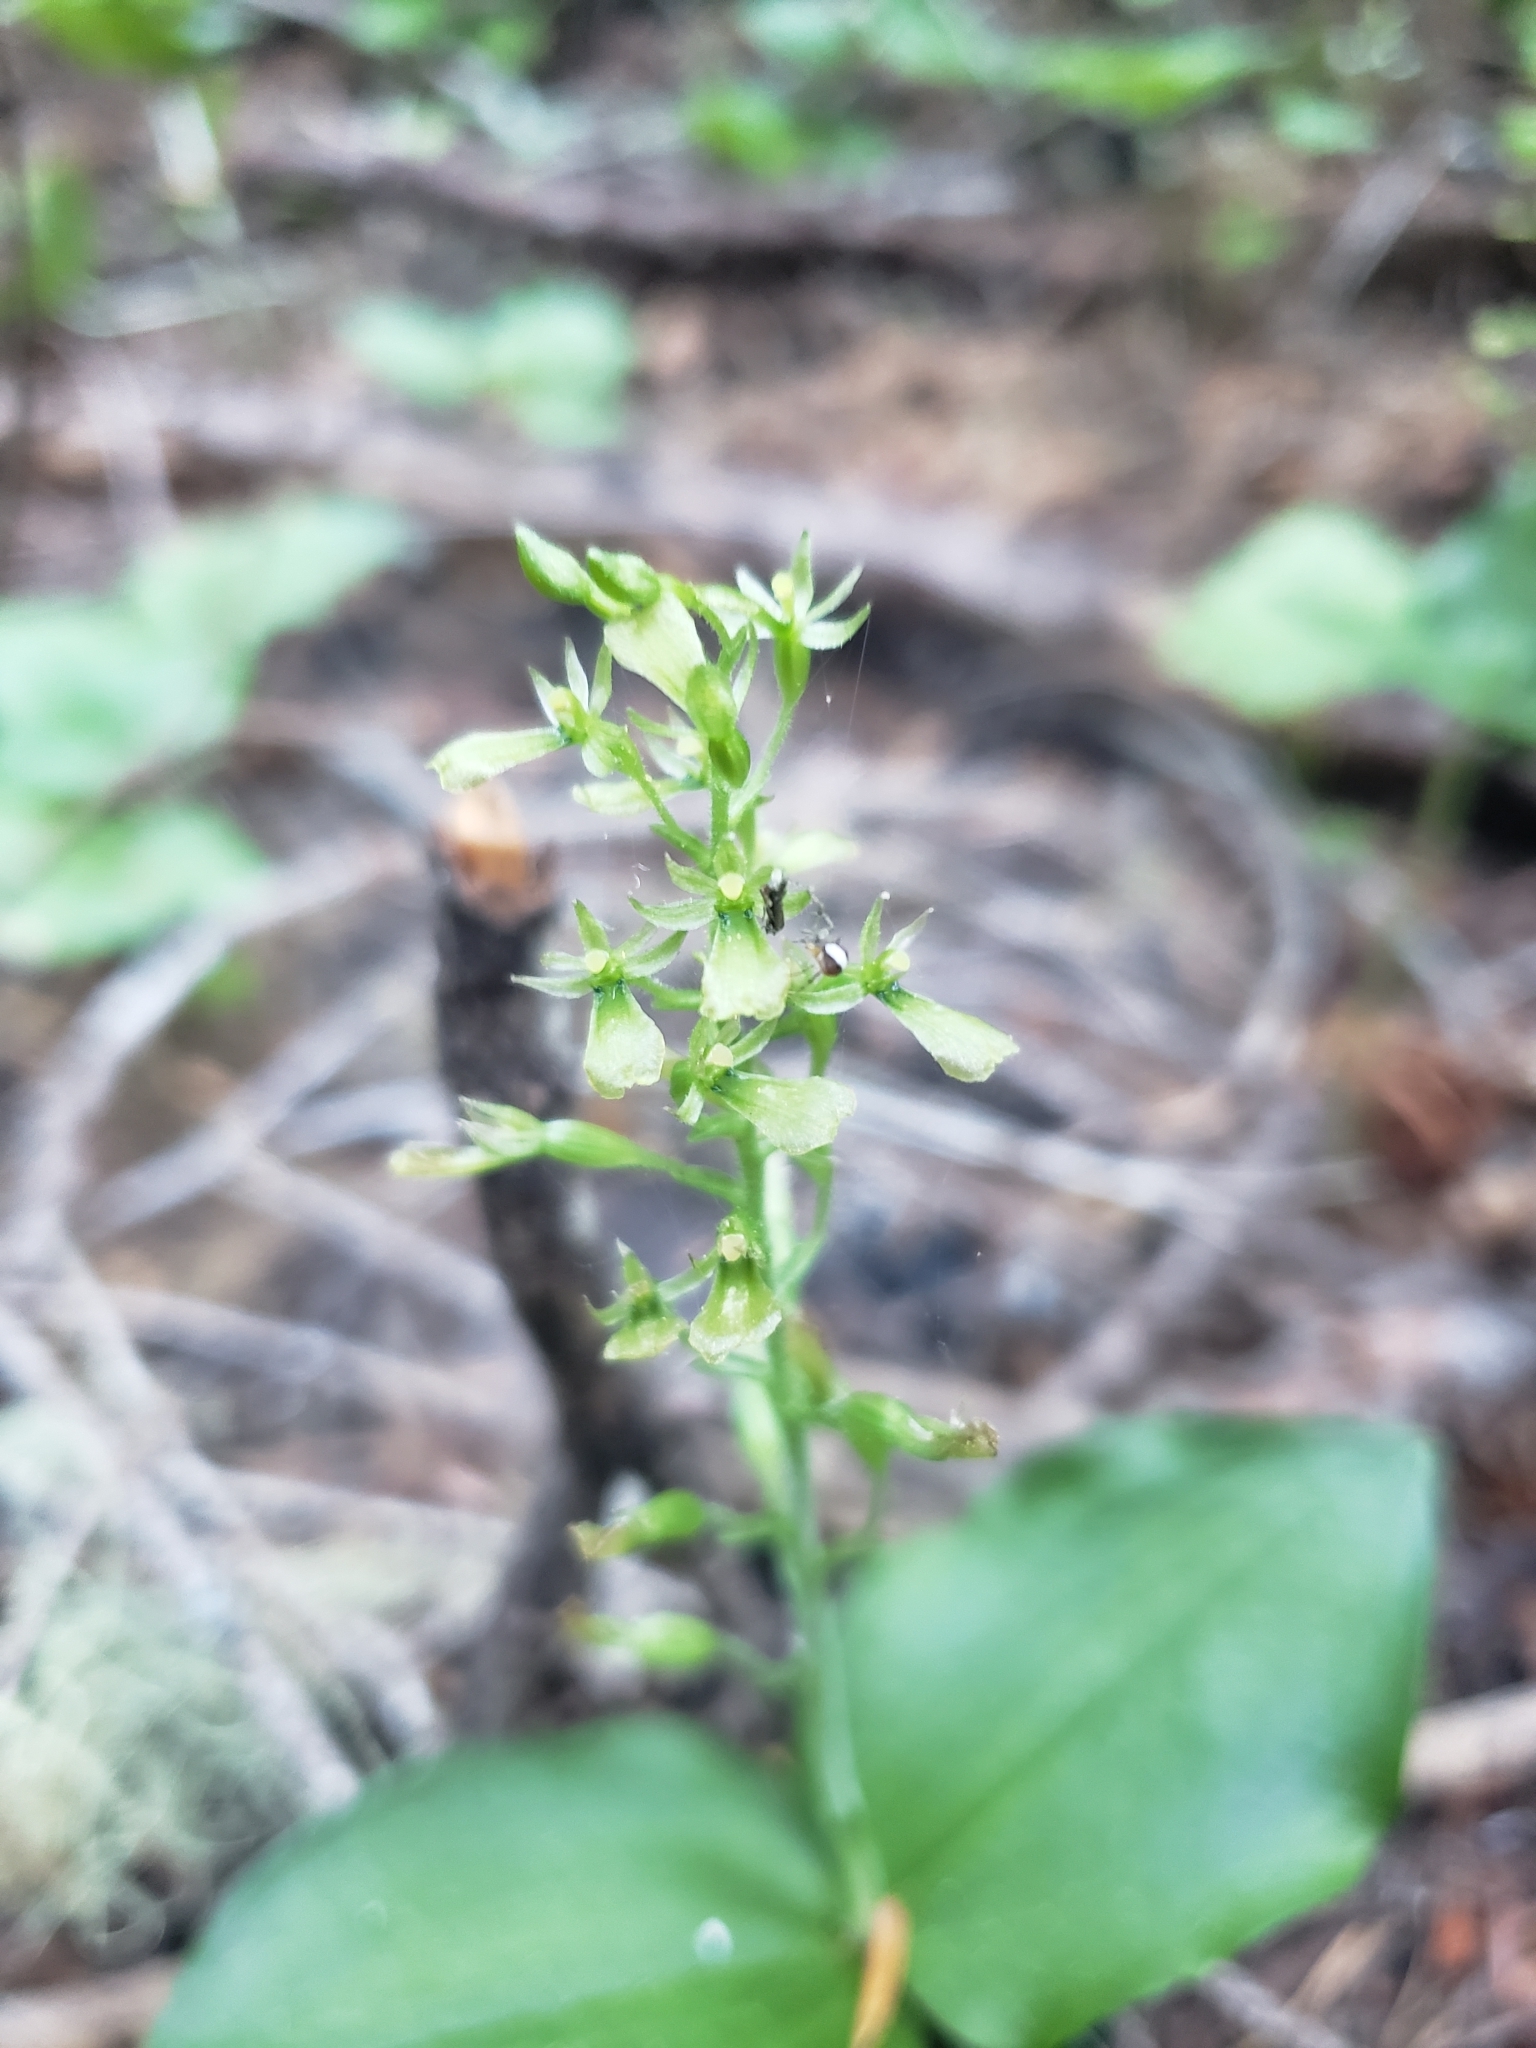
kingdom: Plantae
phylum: Tracheophyta
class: Liliopsida
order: Asparagales
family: Orchidaceae
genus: Neottia
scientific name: Neottia banksiana
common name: Northwestern twayblade
